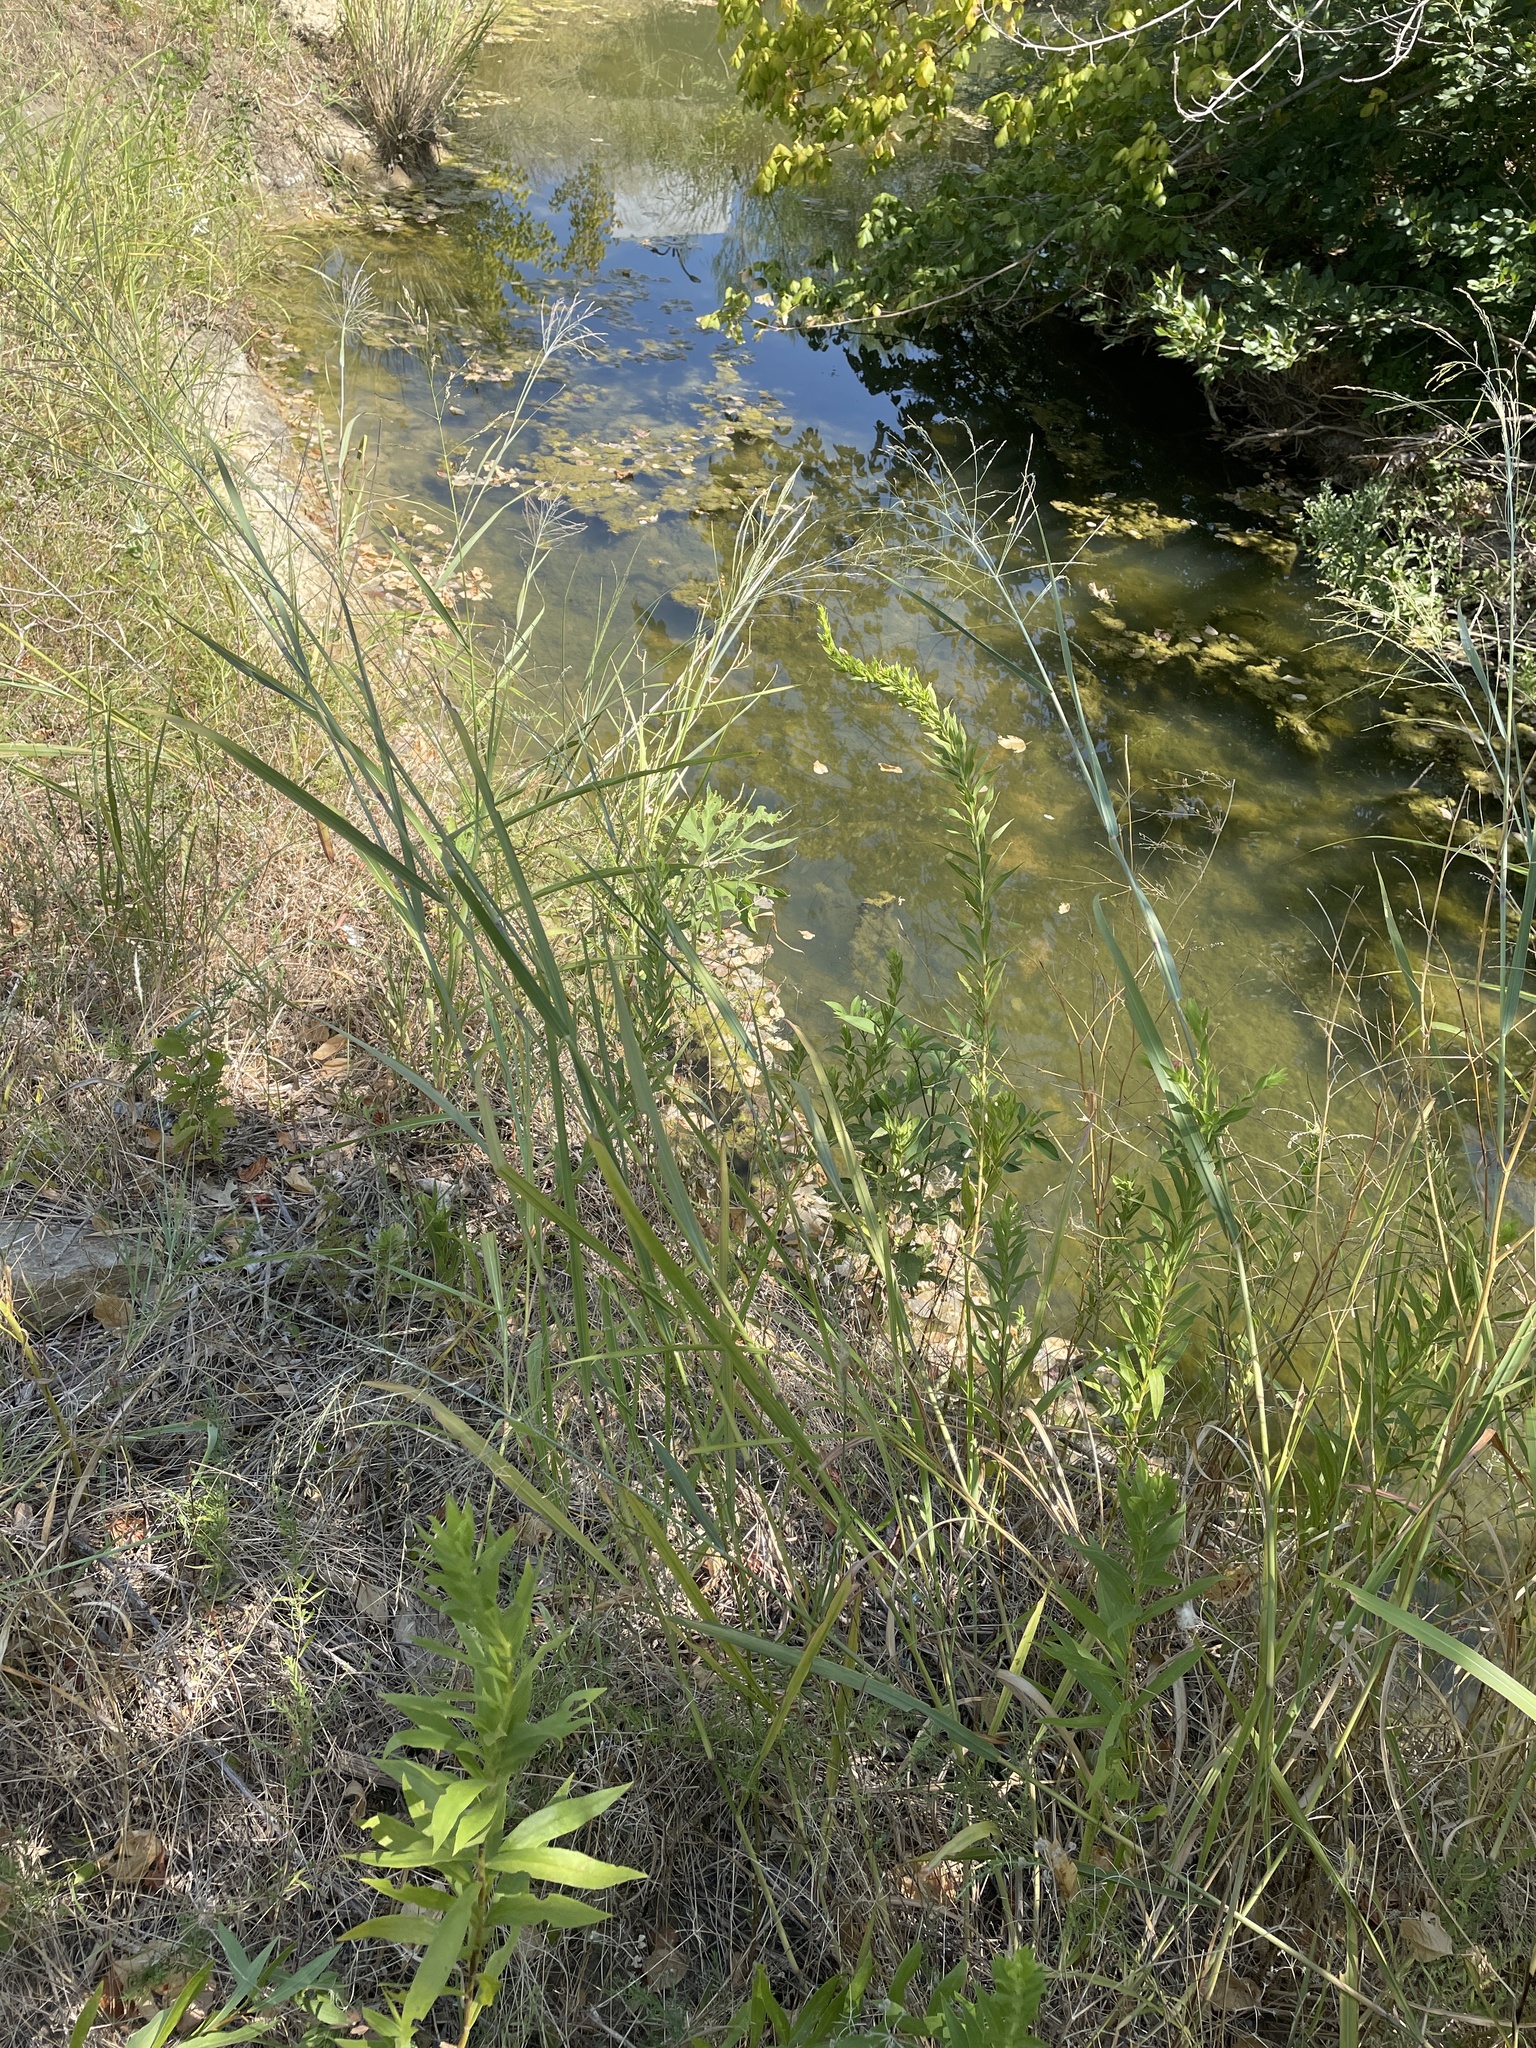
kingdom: Plantae
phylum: Tracheophyta
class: Liliopsida
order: Poales
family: Poaceae
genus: Panicum
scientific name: Panicum virgatum
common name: Switchgrass
